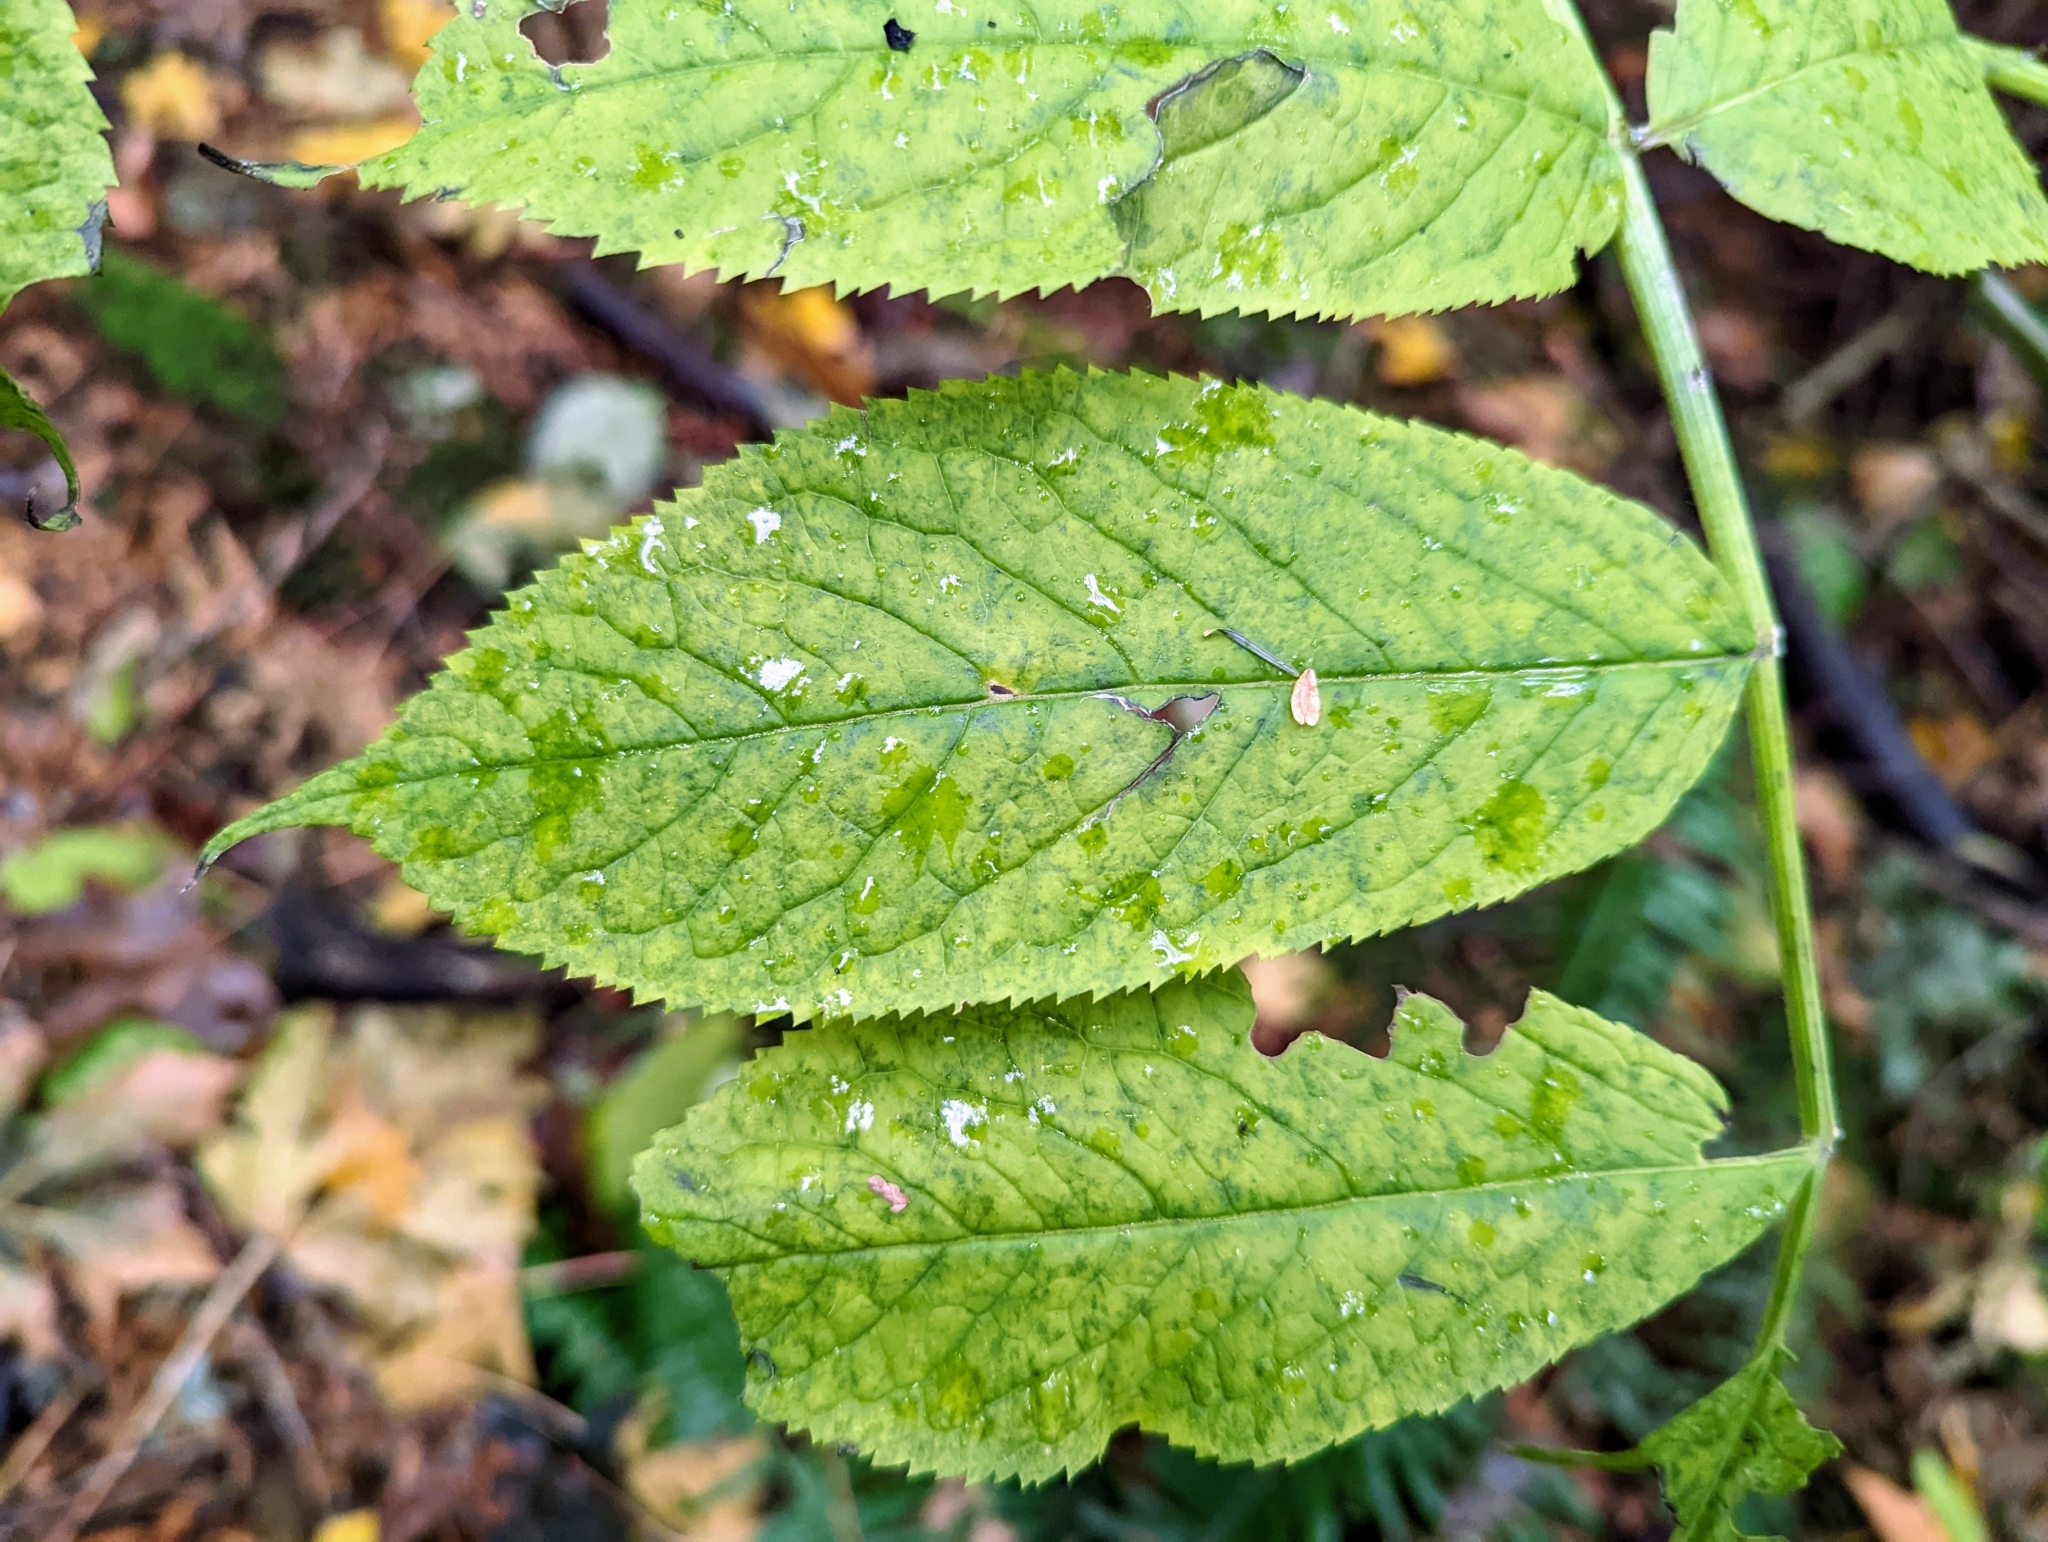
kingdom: Plantae
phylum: Tracheophyta
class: Magnoliopsida
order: Dipsacales
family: Viburnaceae
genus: Sambucus
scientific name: Sambucus racemosa
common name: Red-berried elder
